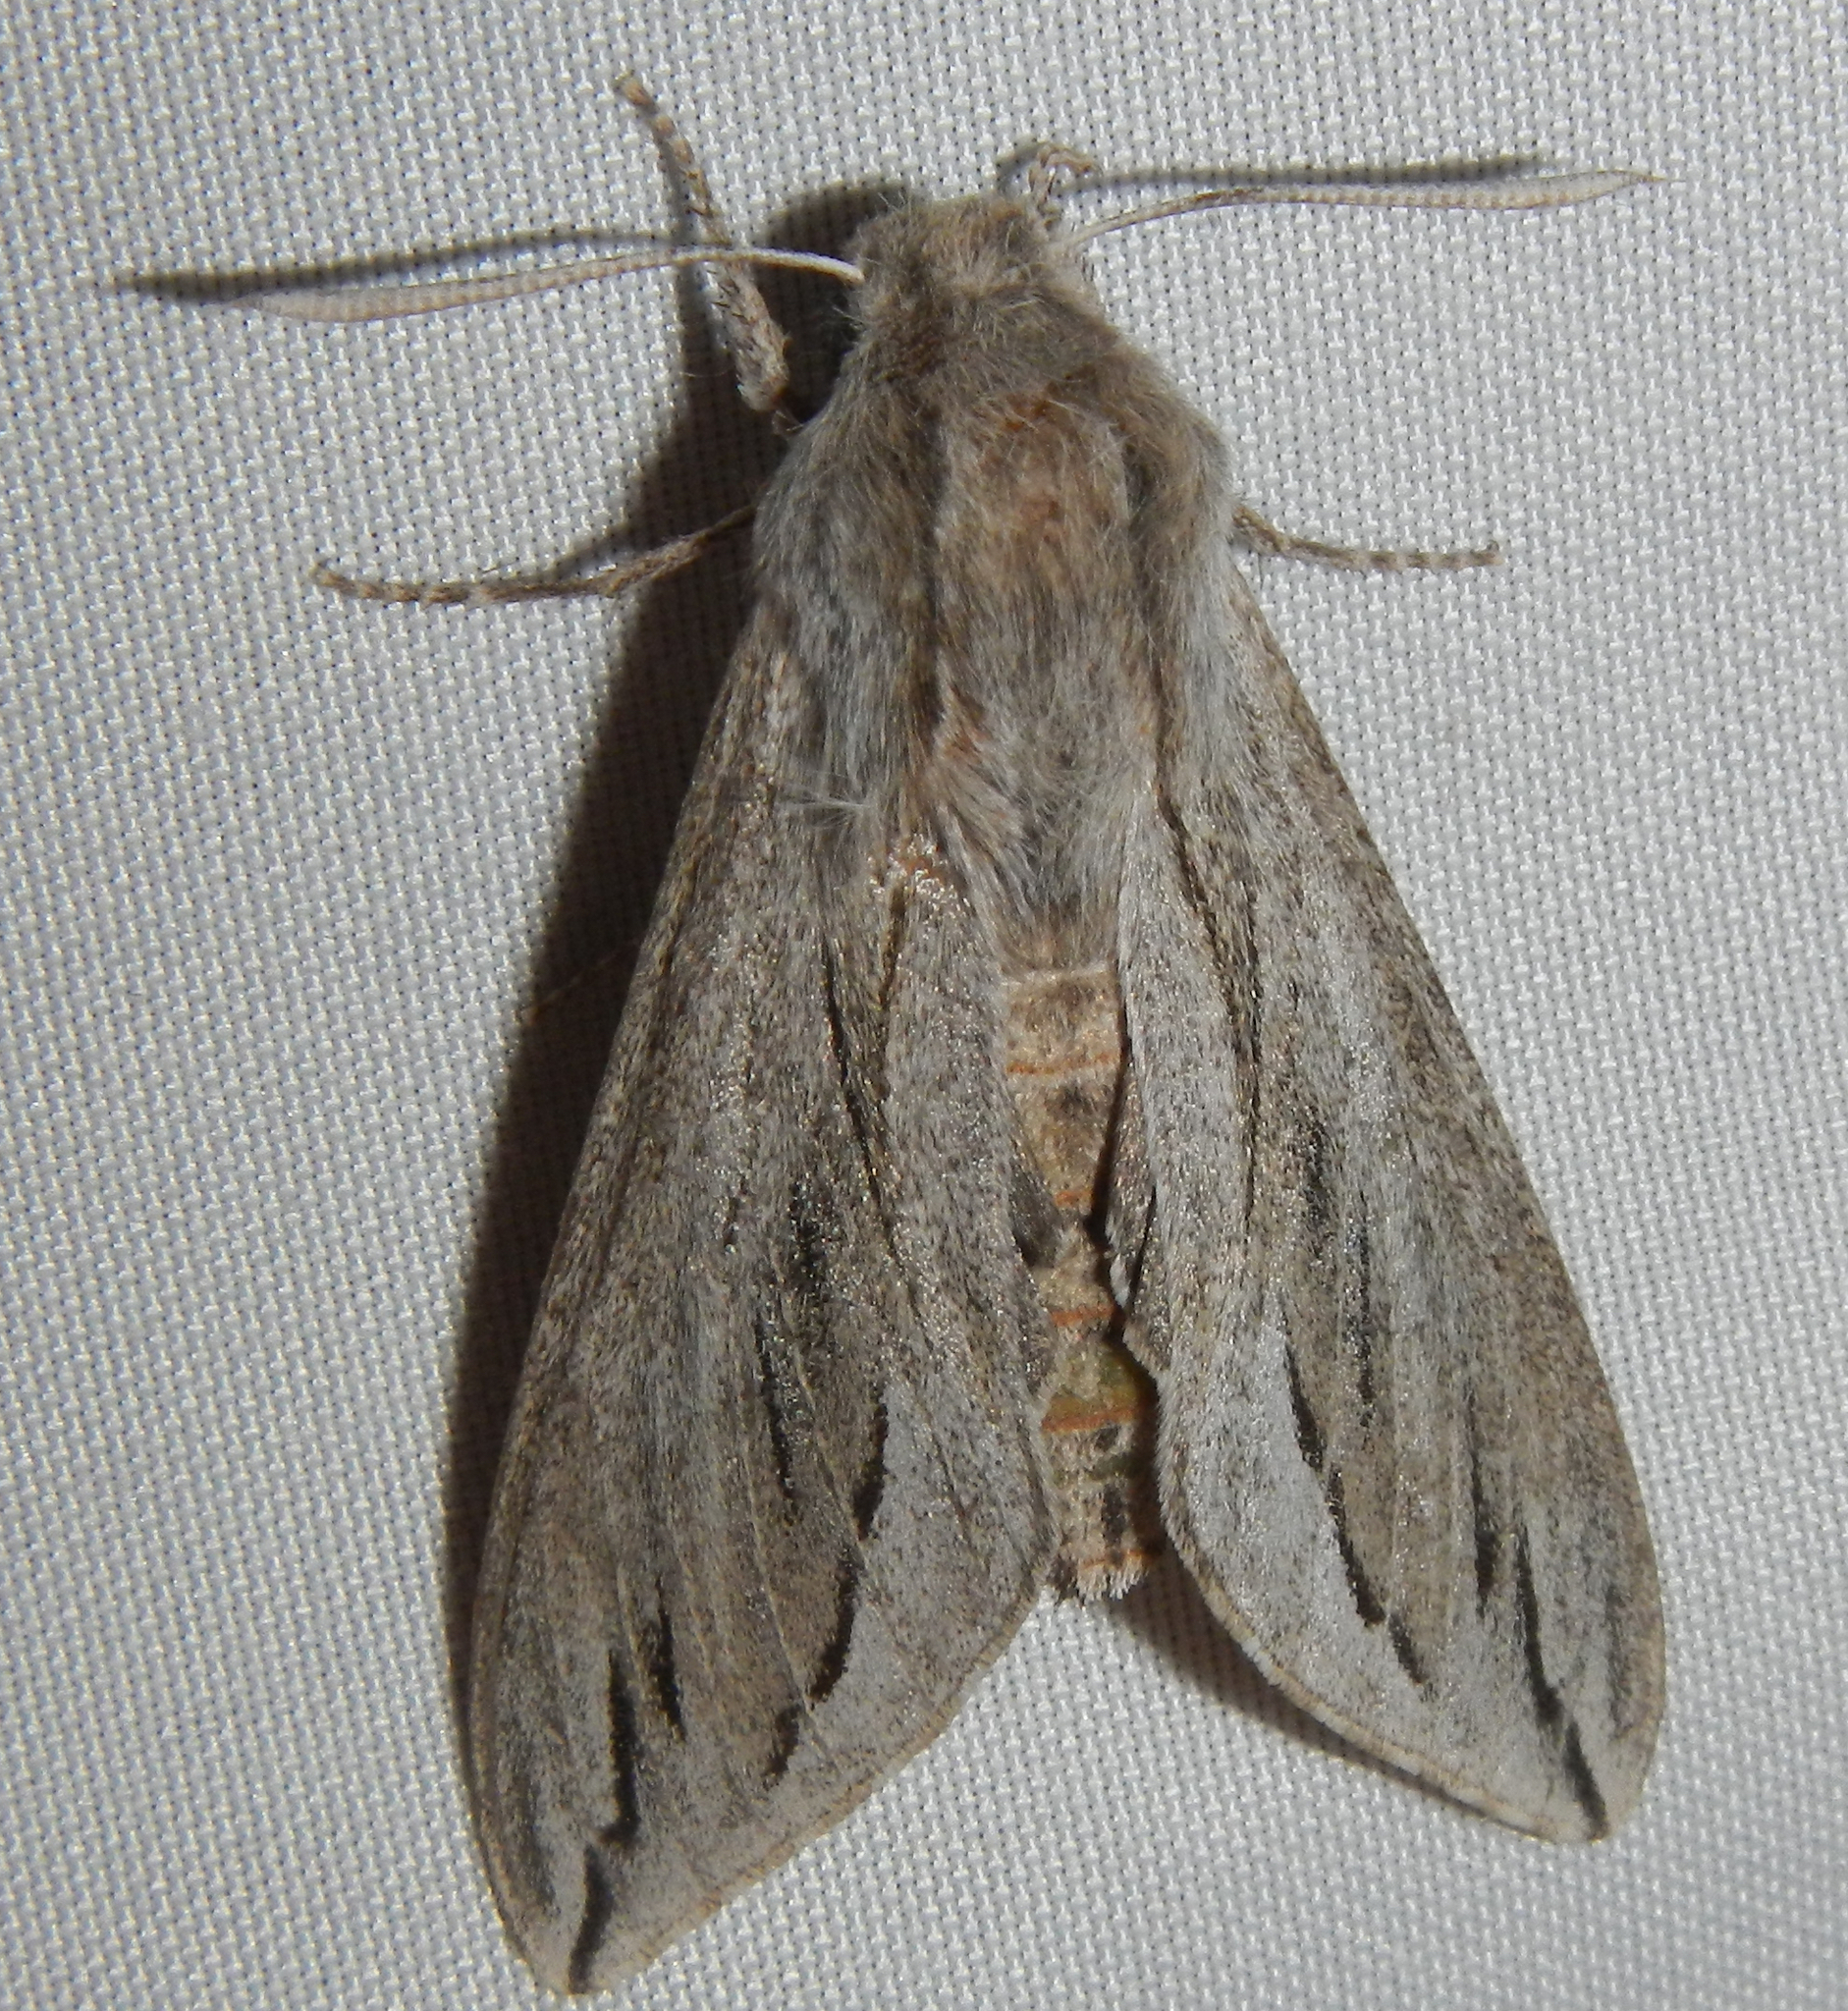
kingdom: Animalia
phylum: Arthropoda
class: Insecta
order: Lepidoptera
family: Sphingidae
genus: Sphinx
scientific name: Sphinx dollii
